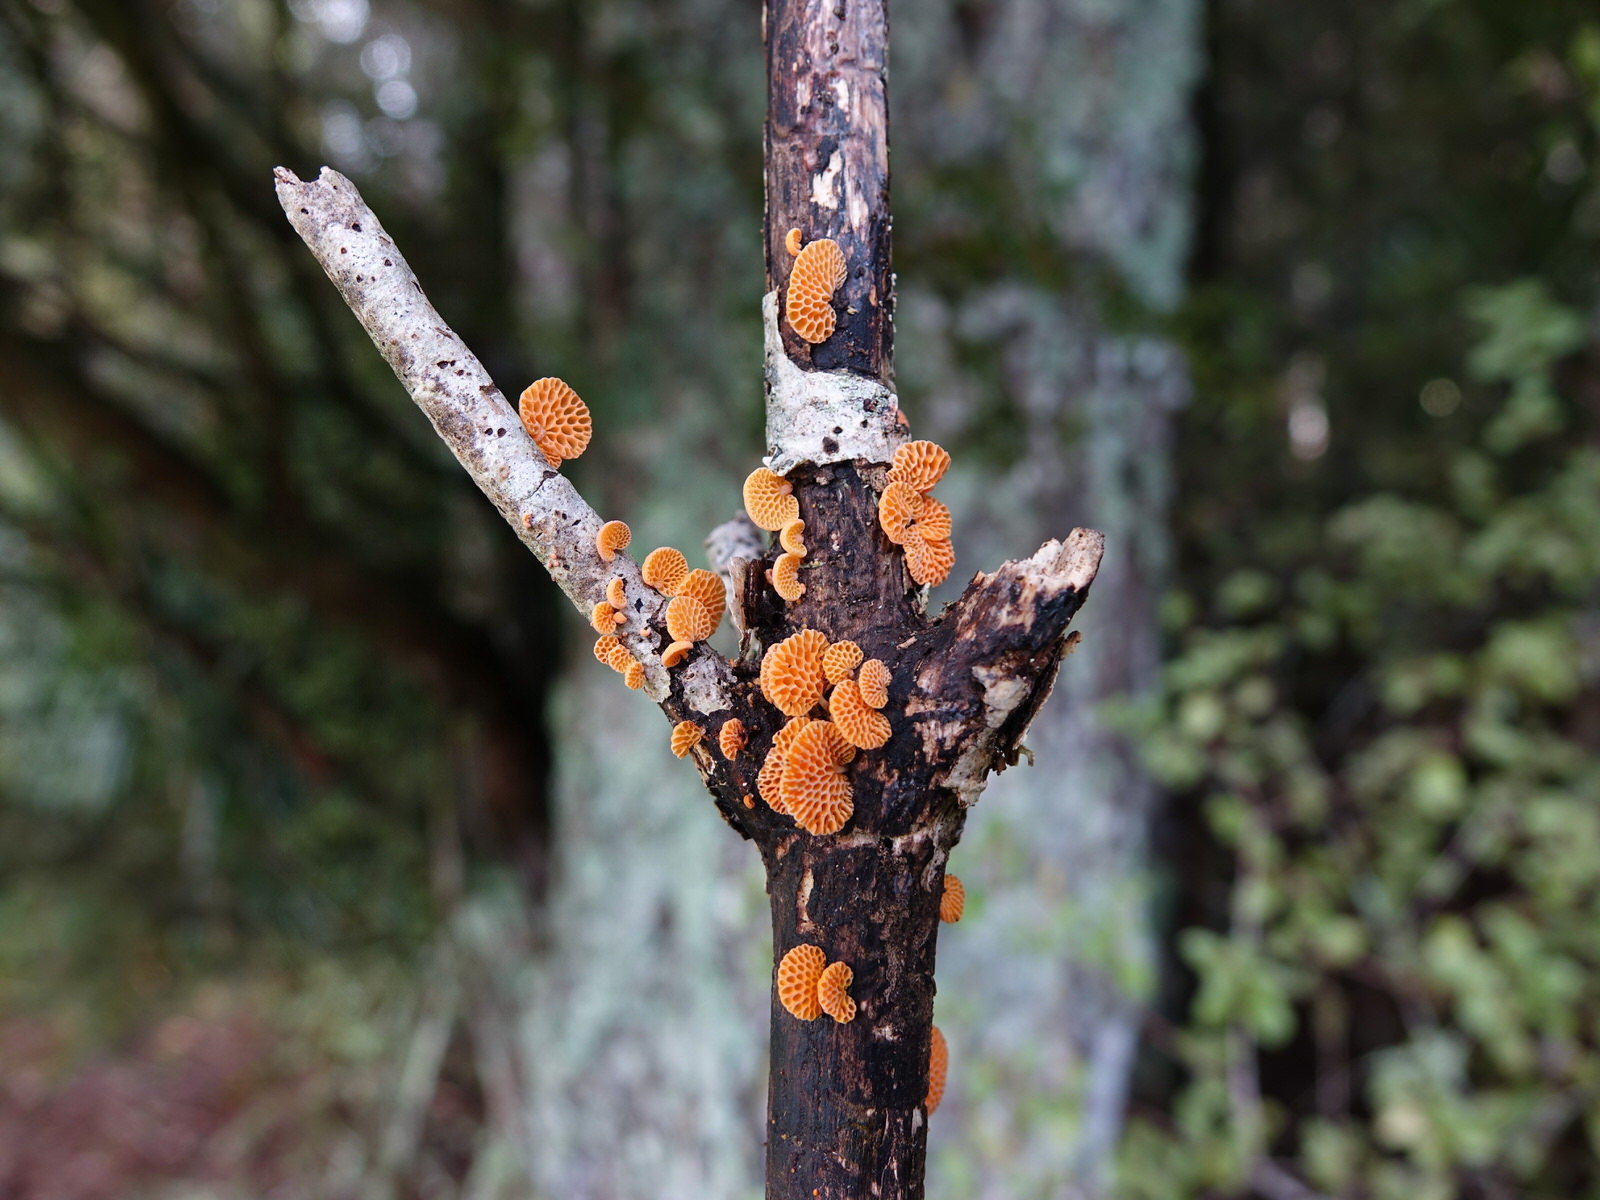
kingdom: Fungi
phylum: Basidiomycota
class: Agaricomycetes
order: Agaricales
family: Mycenaceae
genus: Favolaschia
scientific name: Favolaschia claudopus
